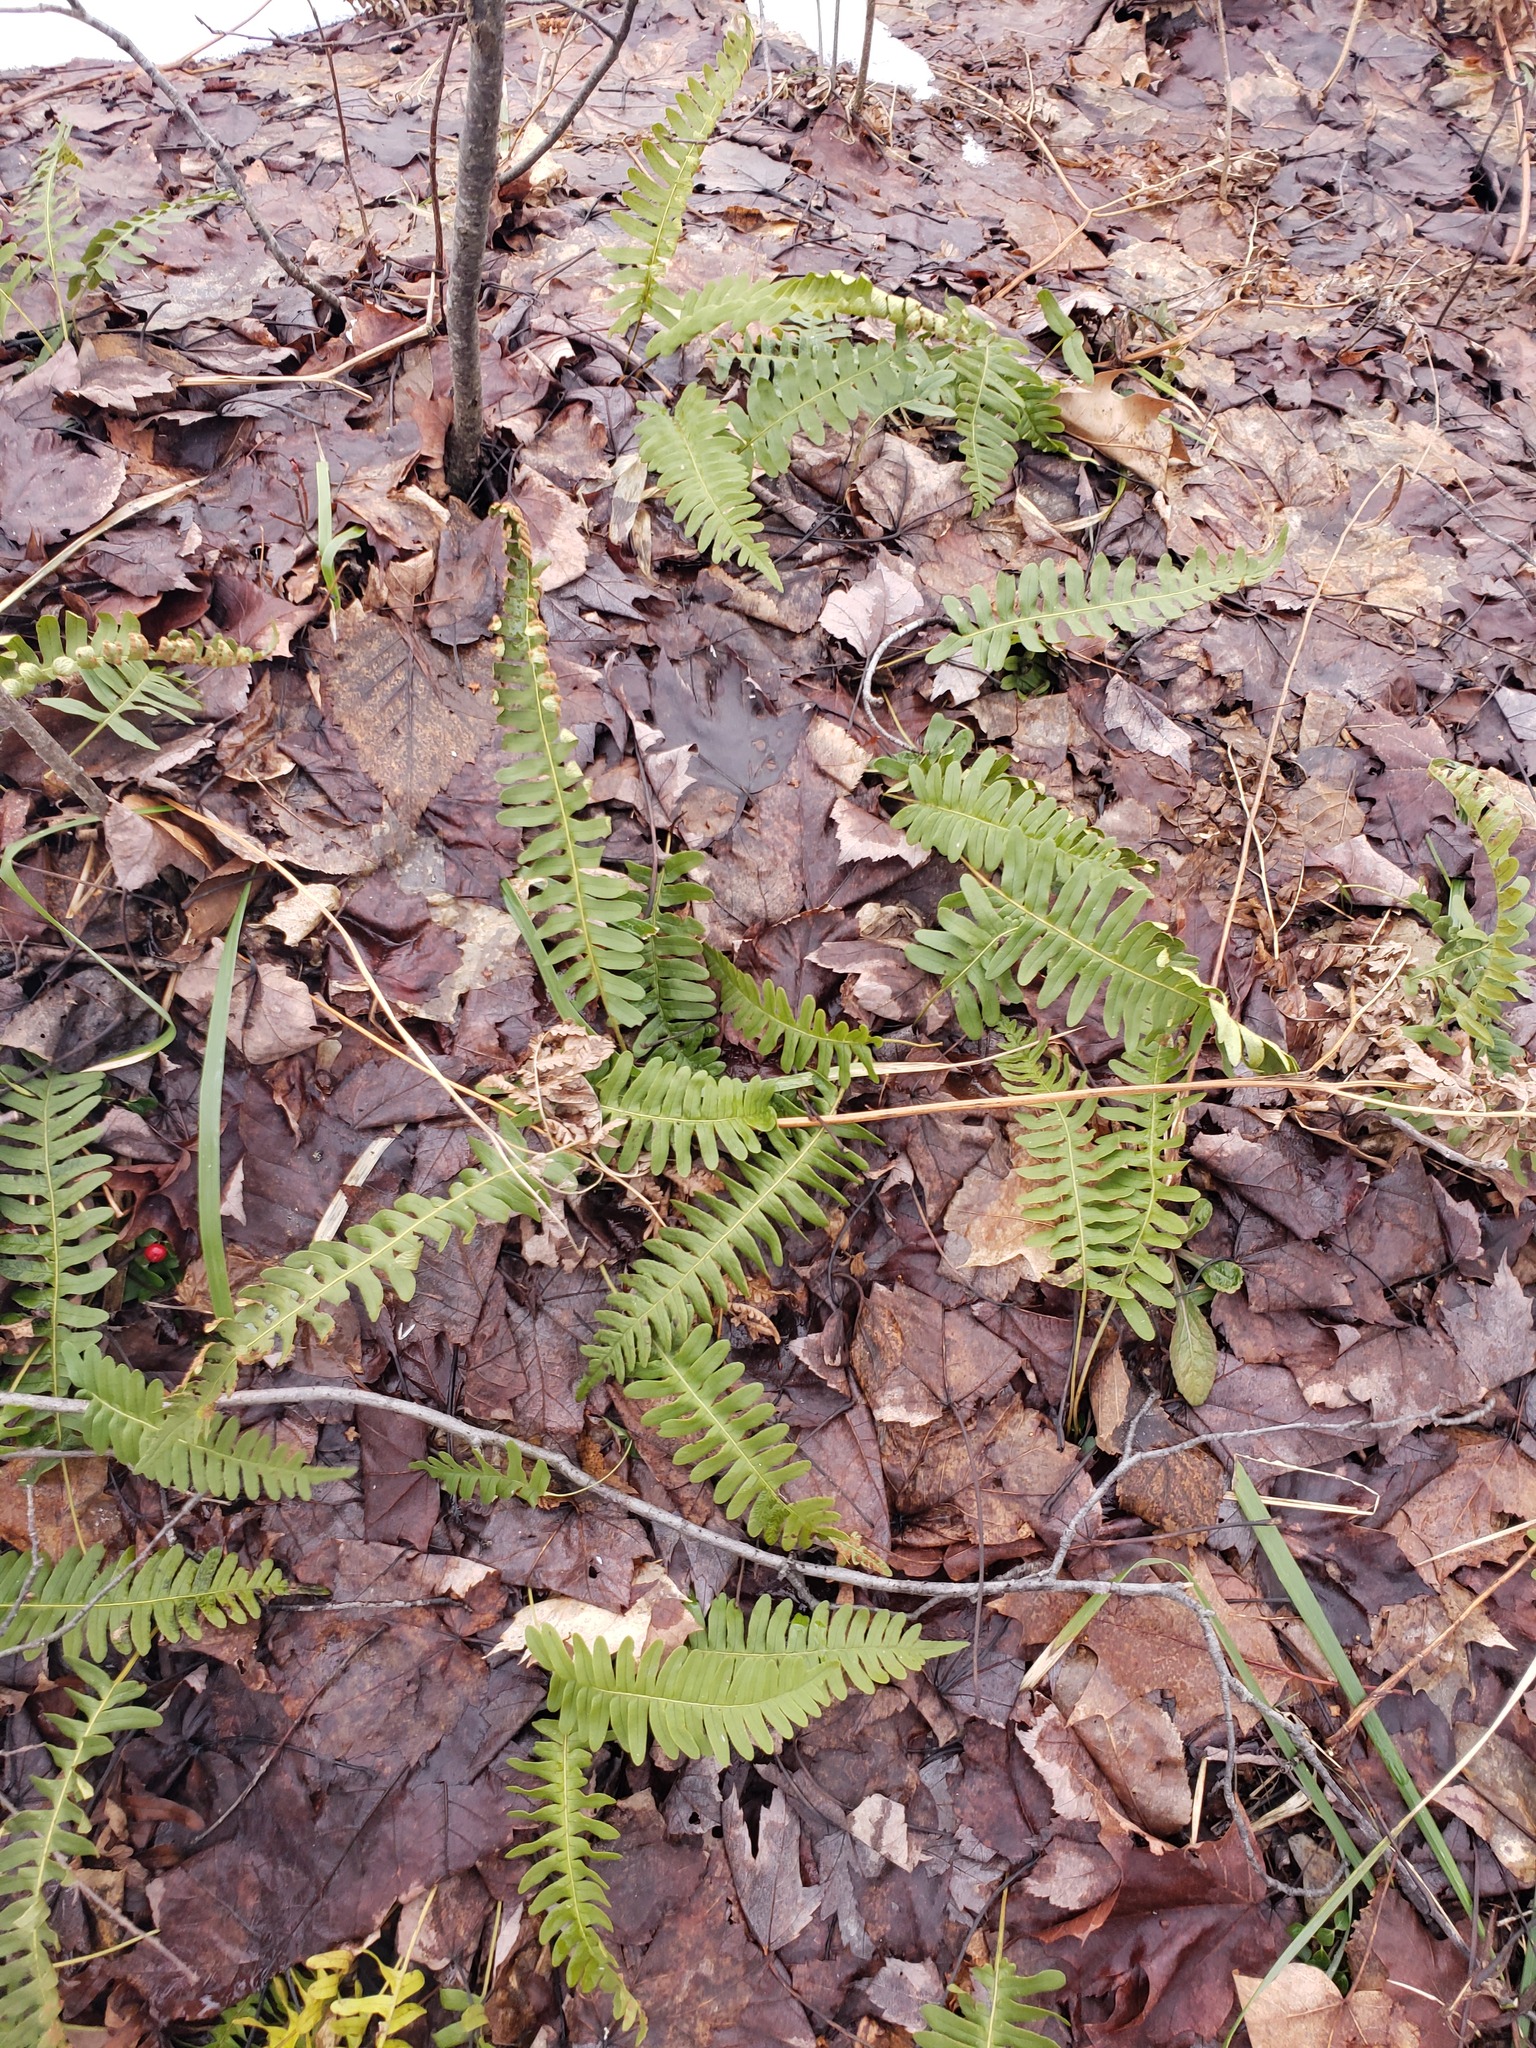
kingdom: Plantae
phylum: Tracheophyta
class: Polypodiopsida
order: Polypodiales
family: Polypodiaceae
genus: Polypodium
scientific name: Polypodium virginianum
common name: American wall fern
